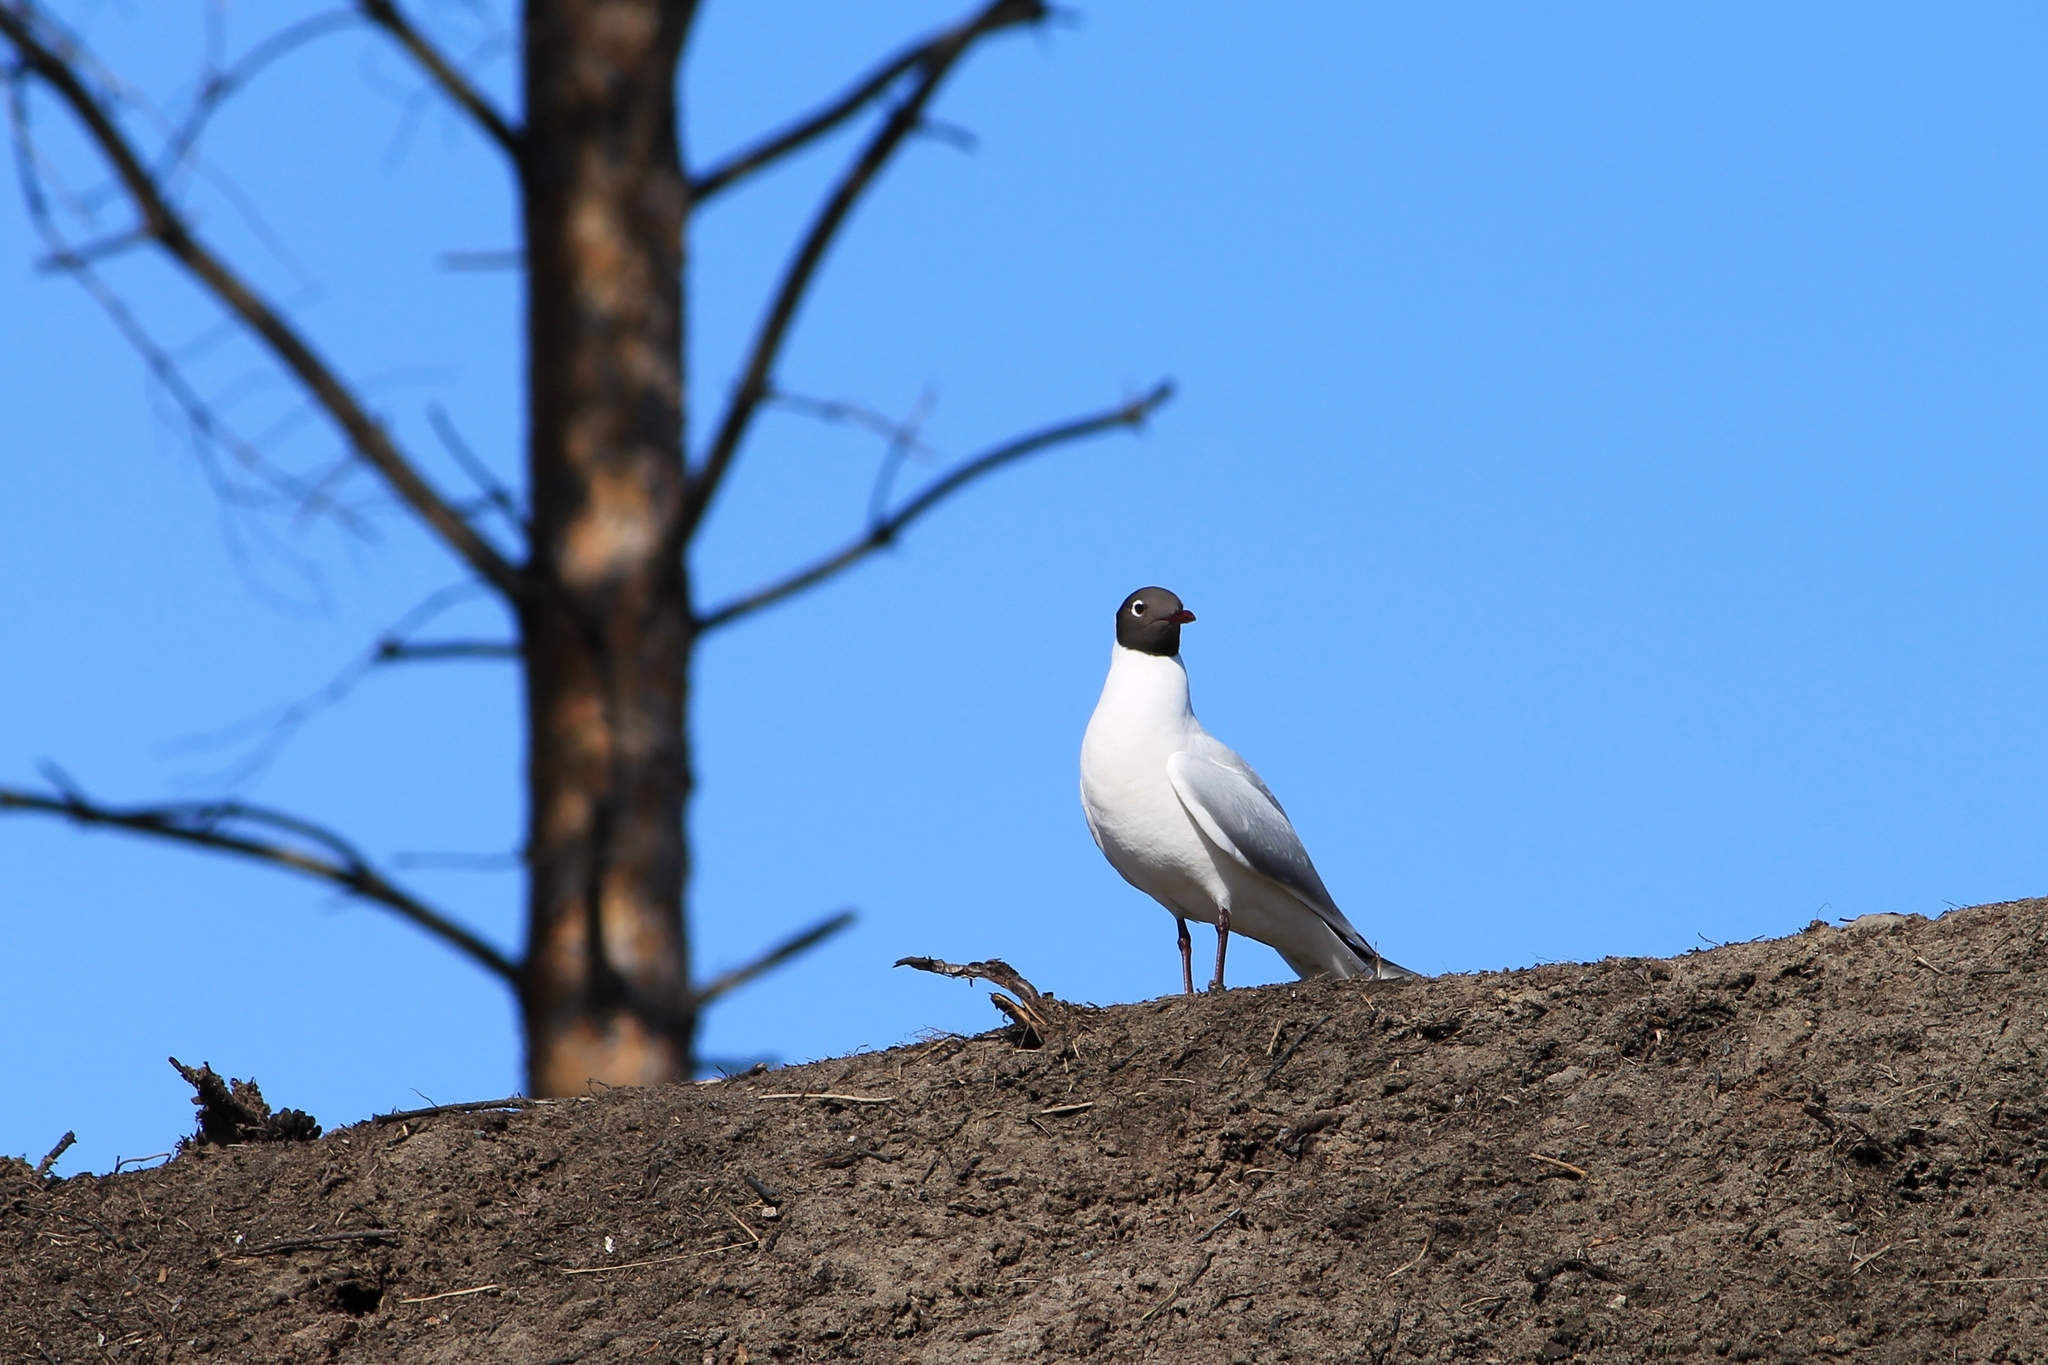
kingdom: Animalia
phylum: Chordata
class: Aves
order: Charadriiformes
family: Laridae
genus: Chroicocephalus
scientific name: Chroicocephalus ridibundus
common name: Black-headed gull
